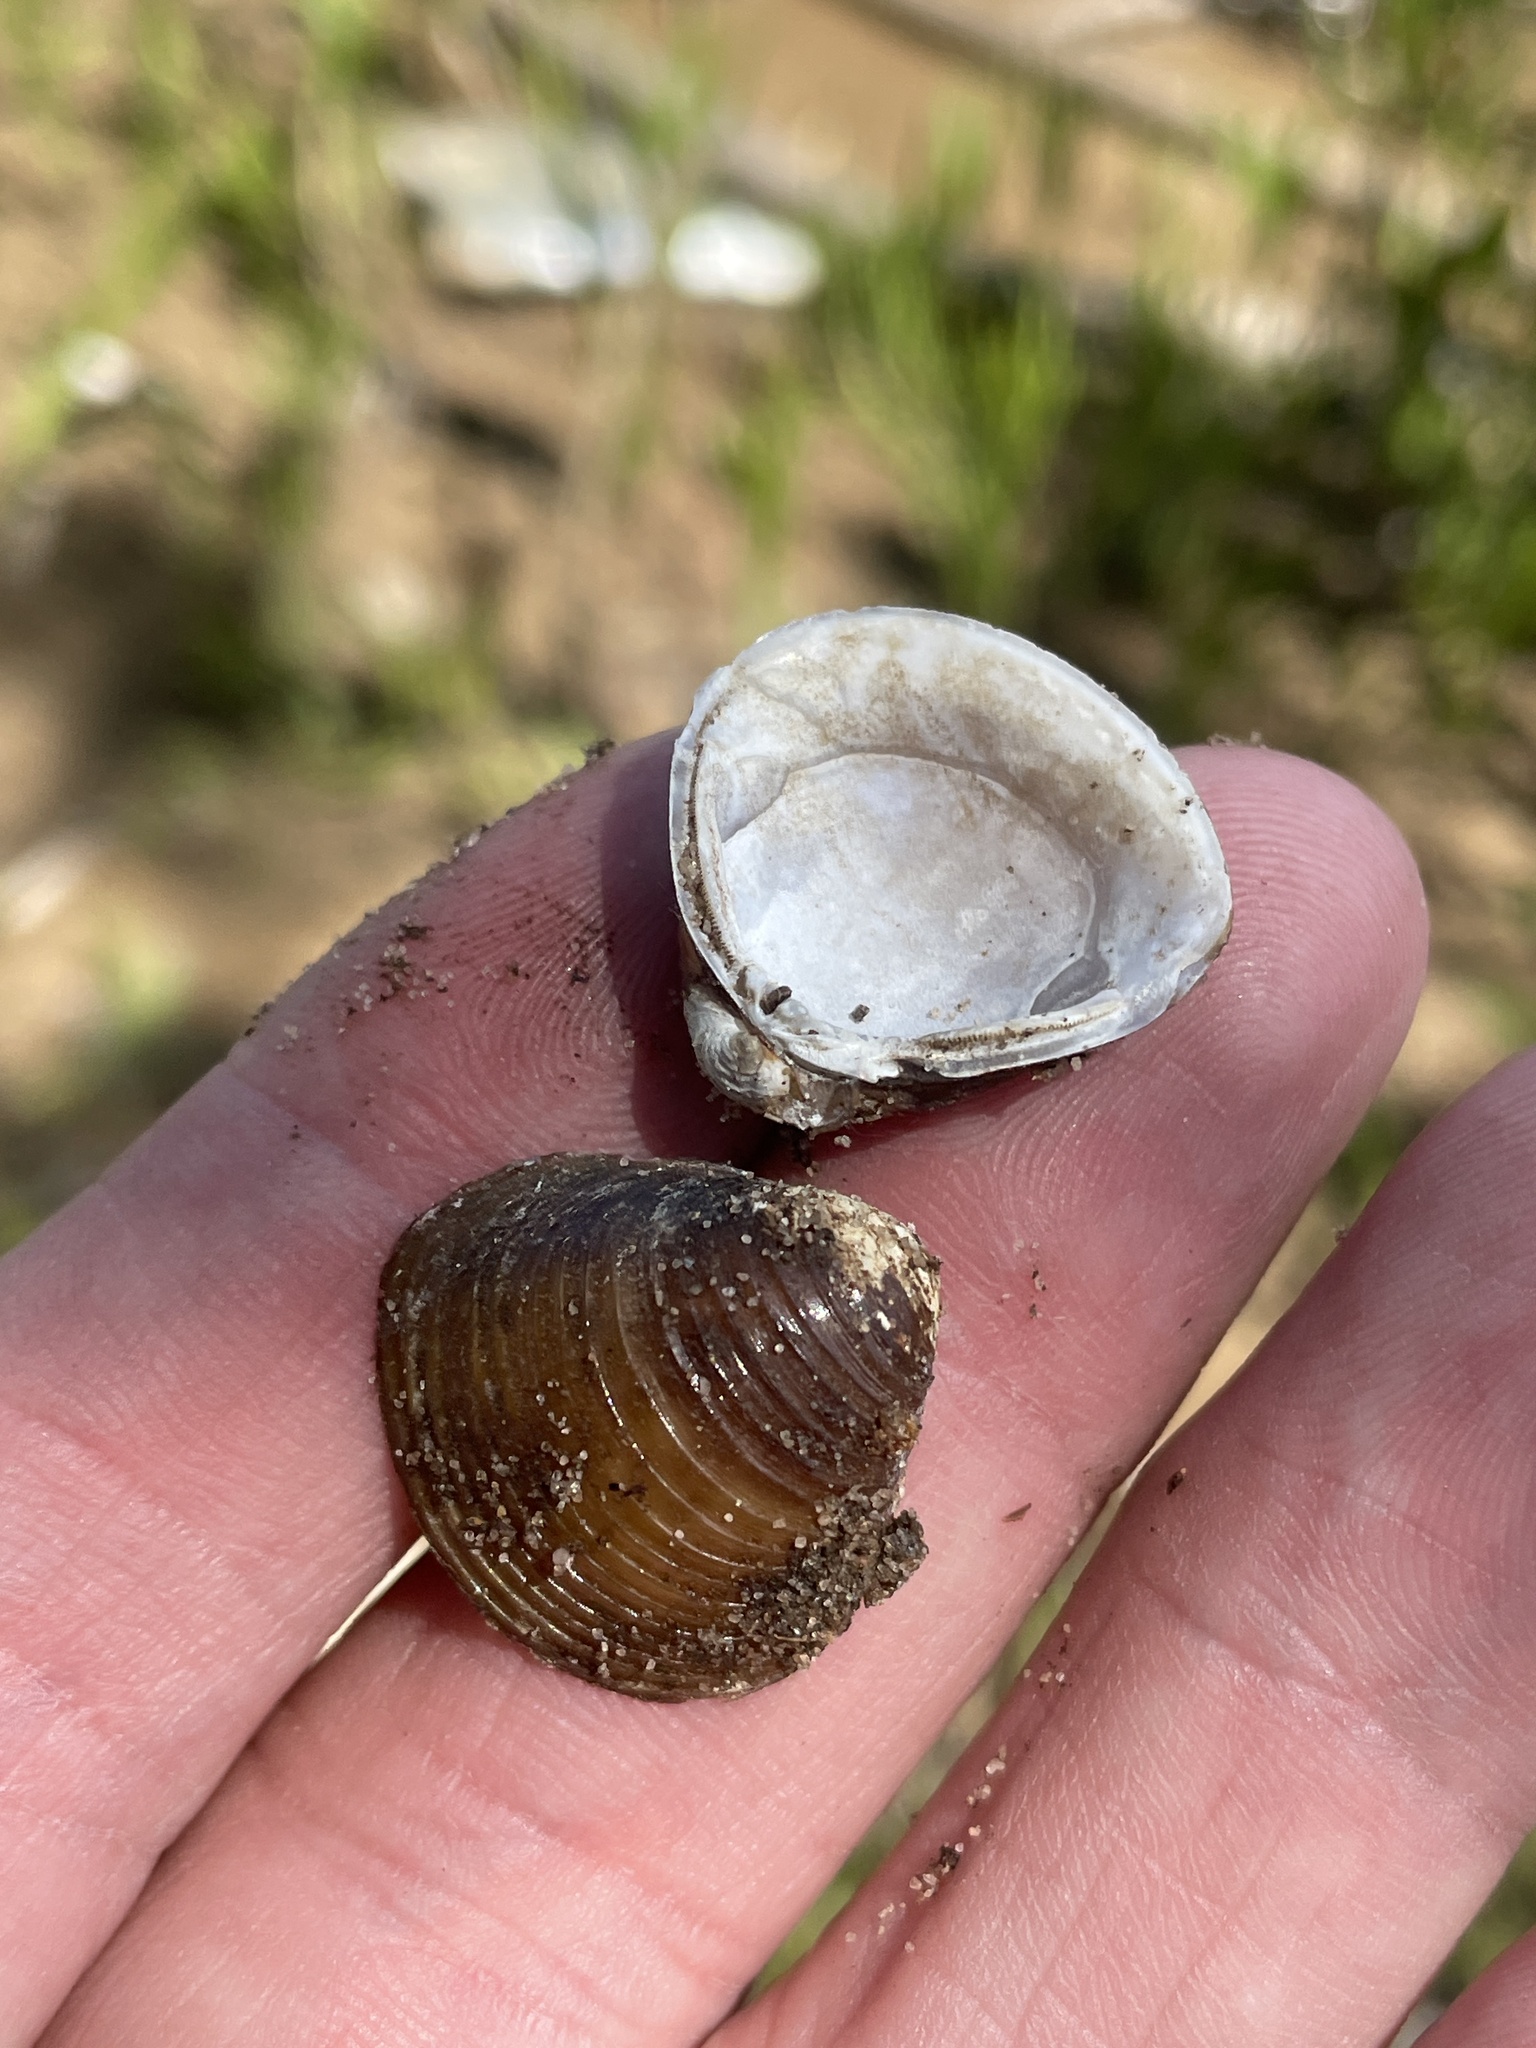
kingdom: Animalia
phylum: Mollusca
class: Bivalvia
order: Venerida
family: Cyrenidae
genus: Corbicula
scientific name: Corbicula fluminea
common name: Asian clam
